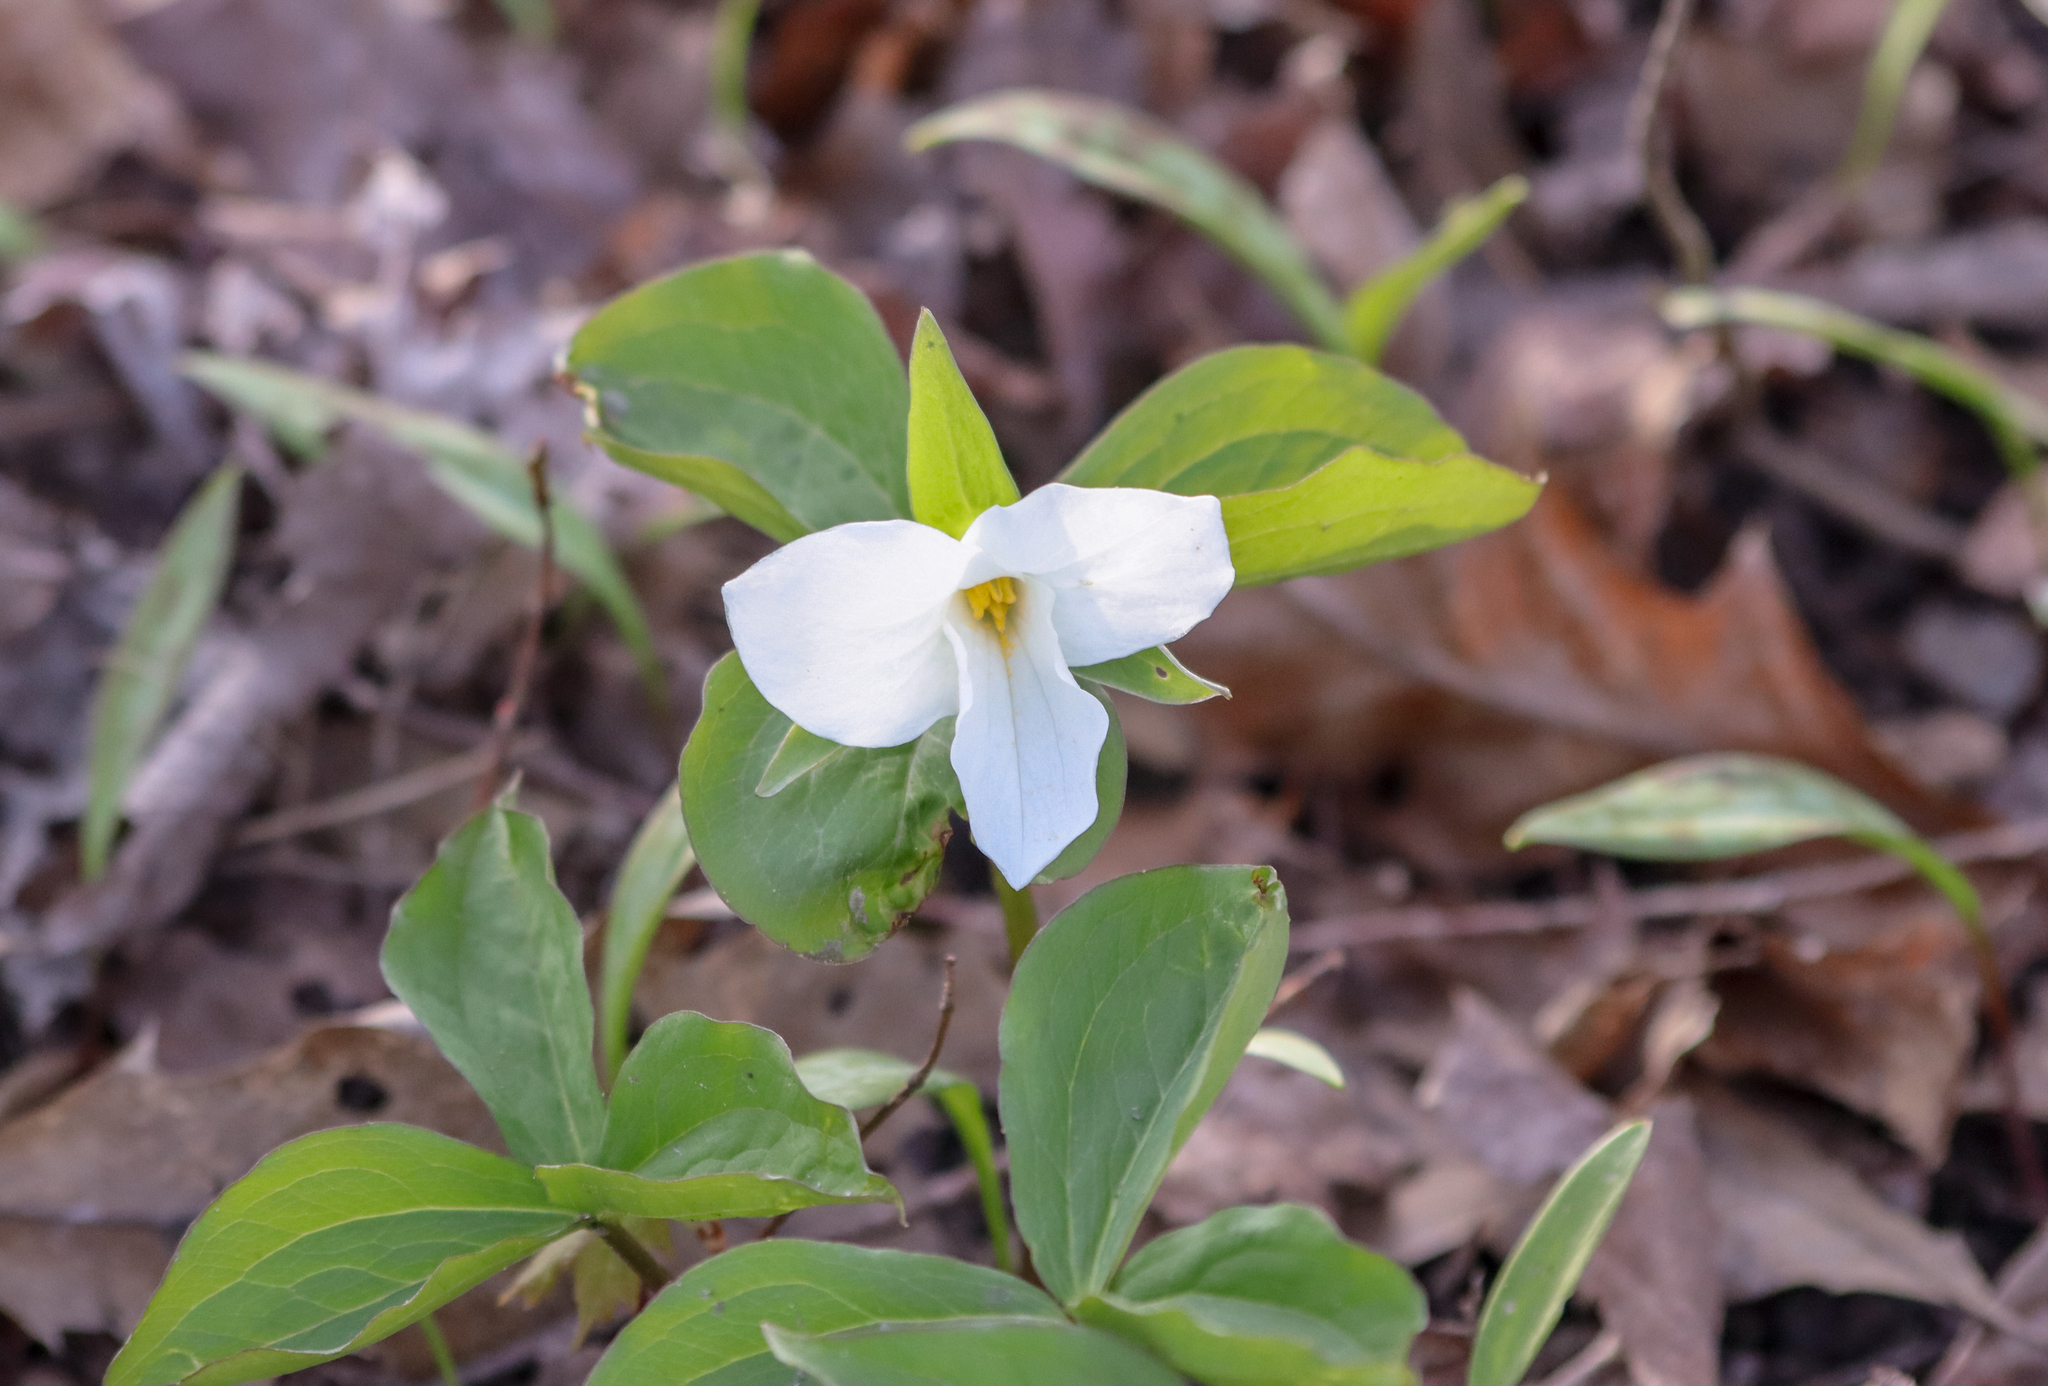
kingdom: Plantae
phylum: Tracheophyta
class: Liliopsida
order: Liliales
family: Melanthiaceae
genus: Trillium
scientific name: Trillium grandiflorum
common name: Great white trillium
